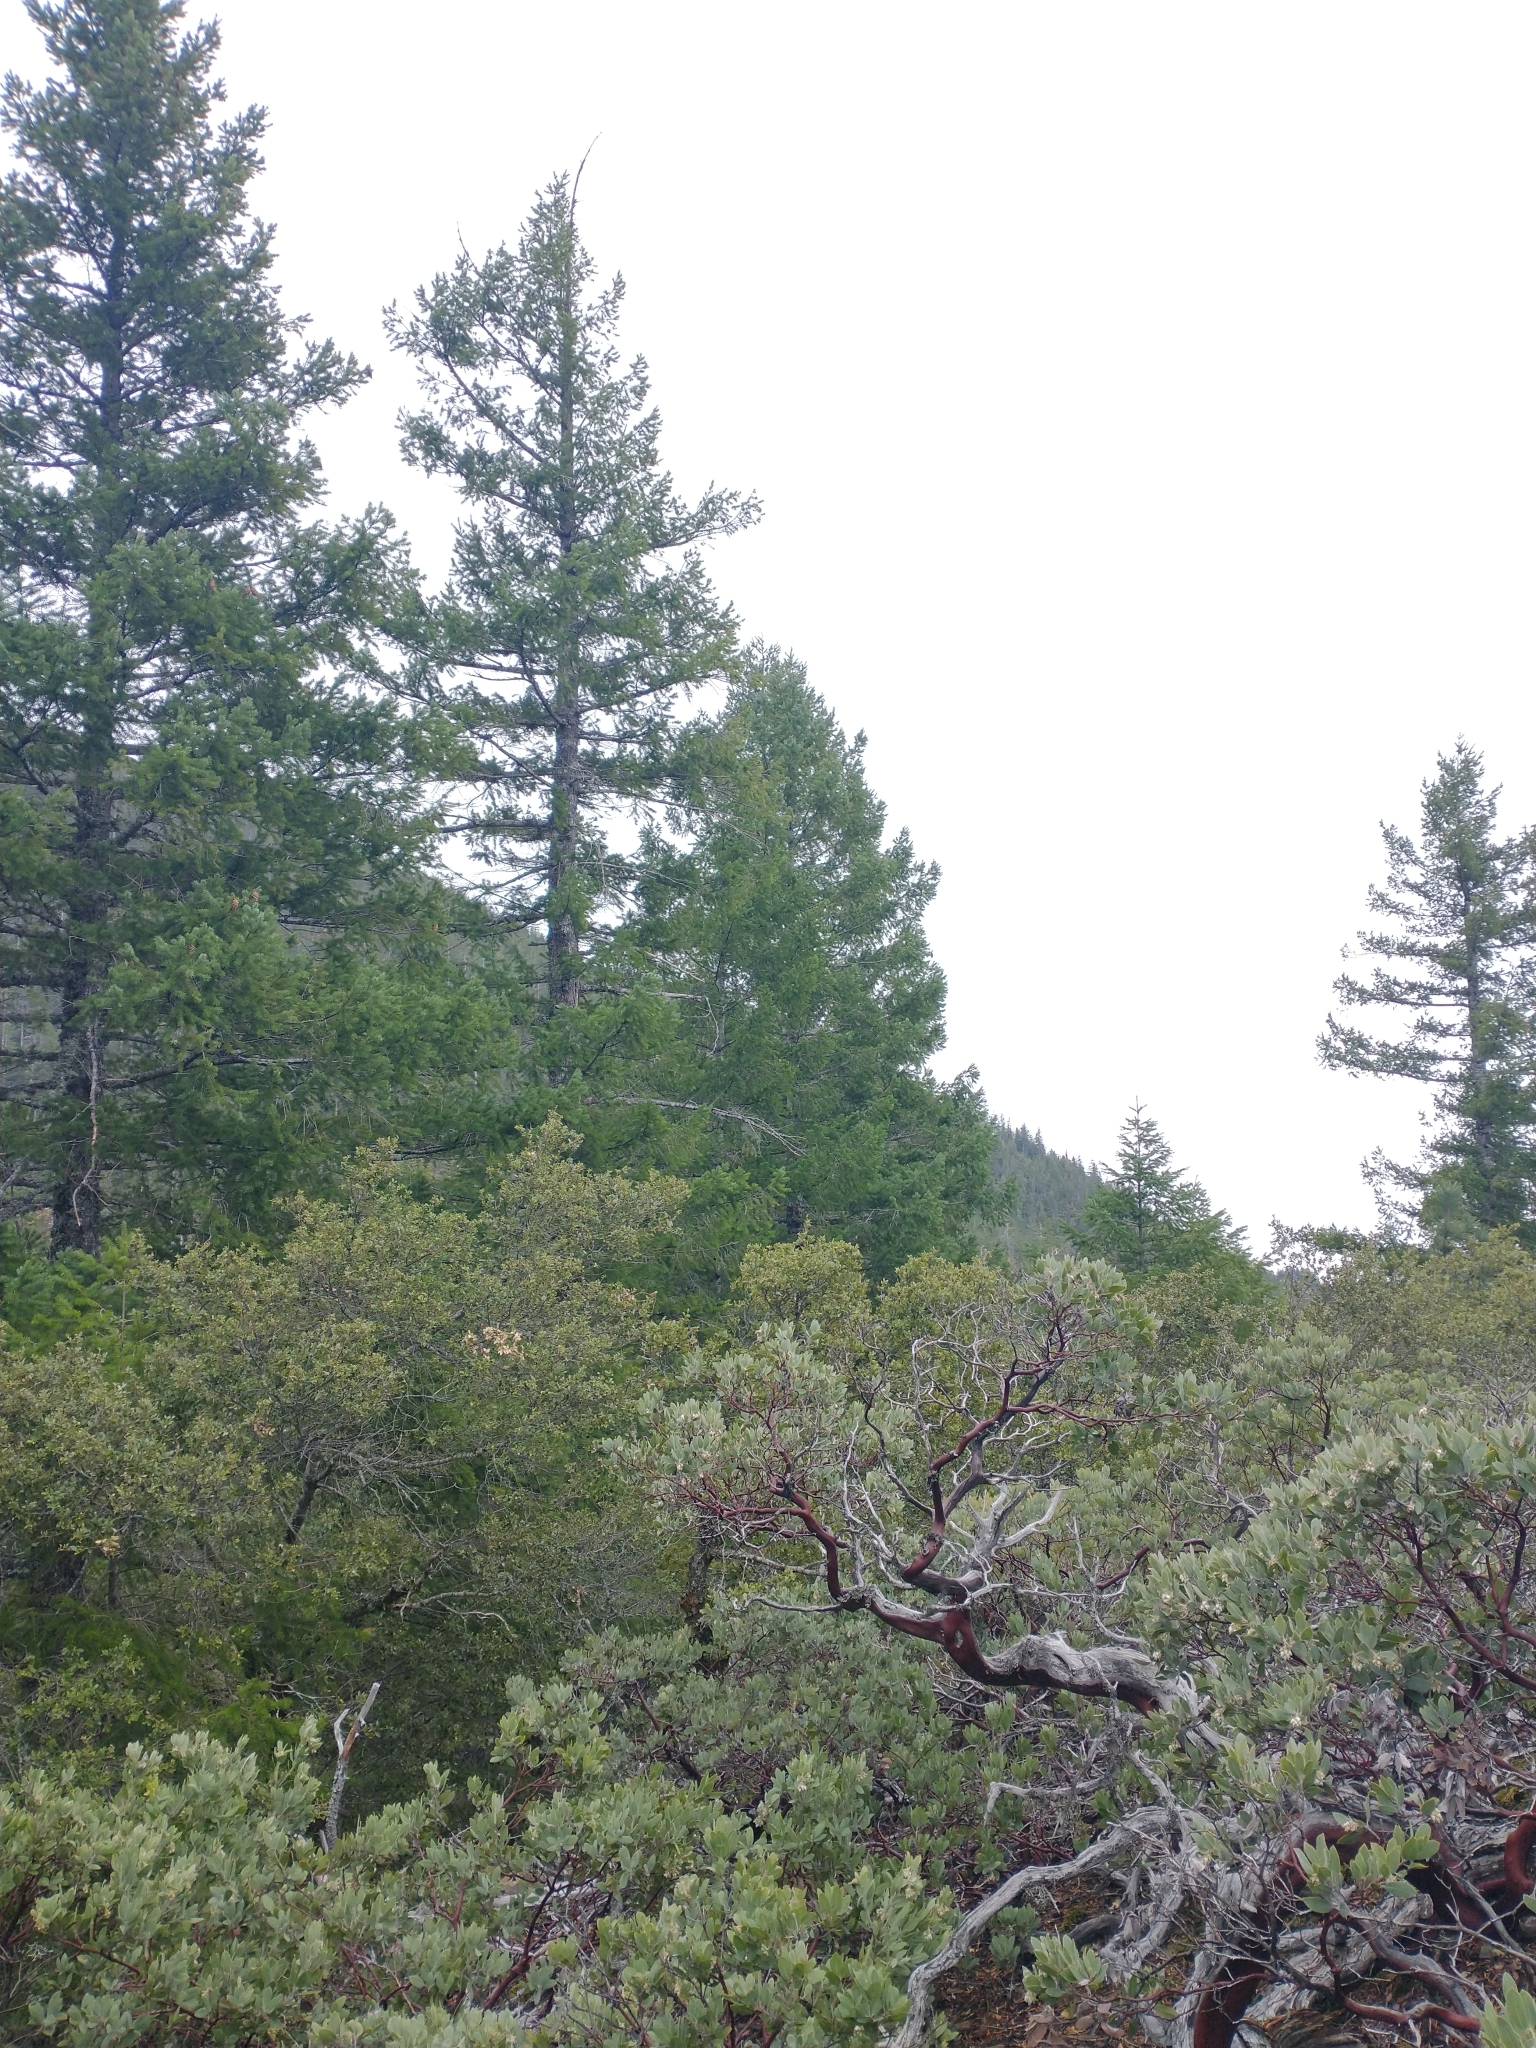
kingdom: Plantae
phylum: Tracheophyta
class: Magnoliopsida
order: Ericales
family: Ericaceae
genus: Arctostaphylos
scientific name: Arctostaphylos columbiana
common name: Bristly bearberry
